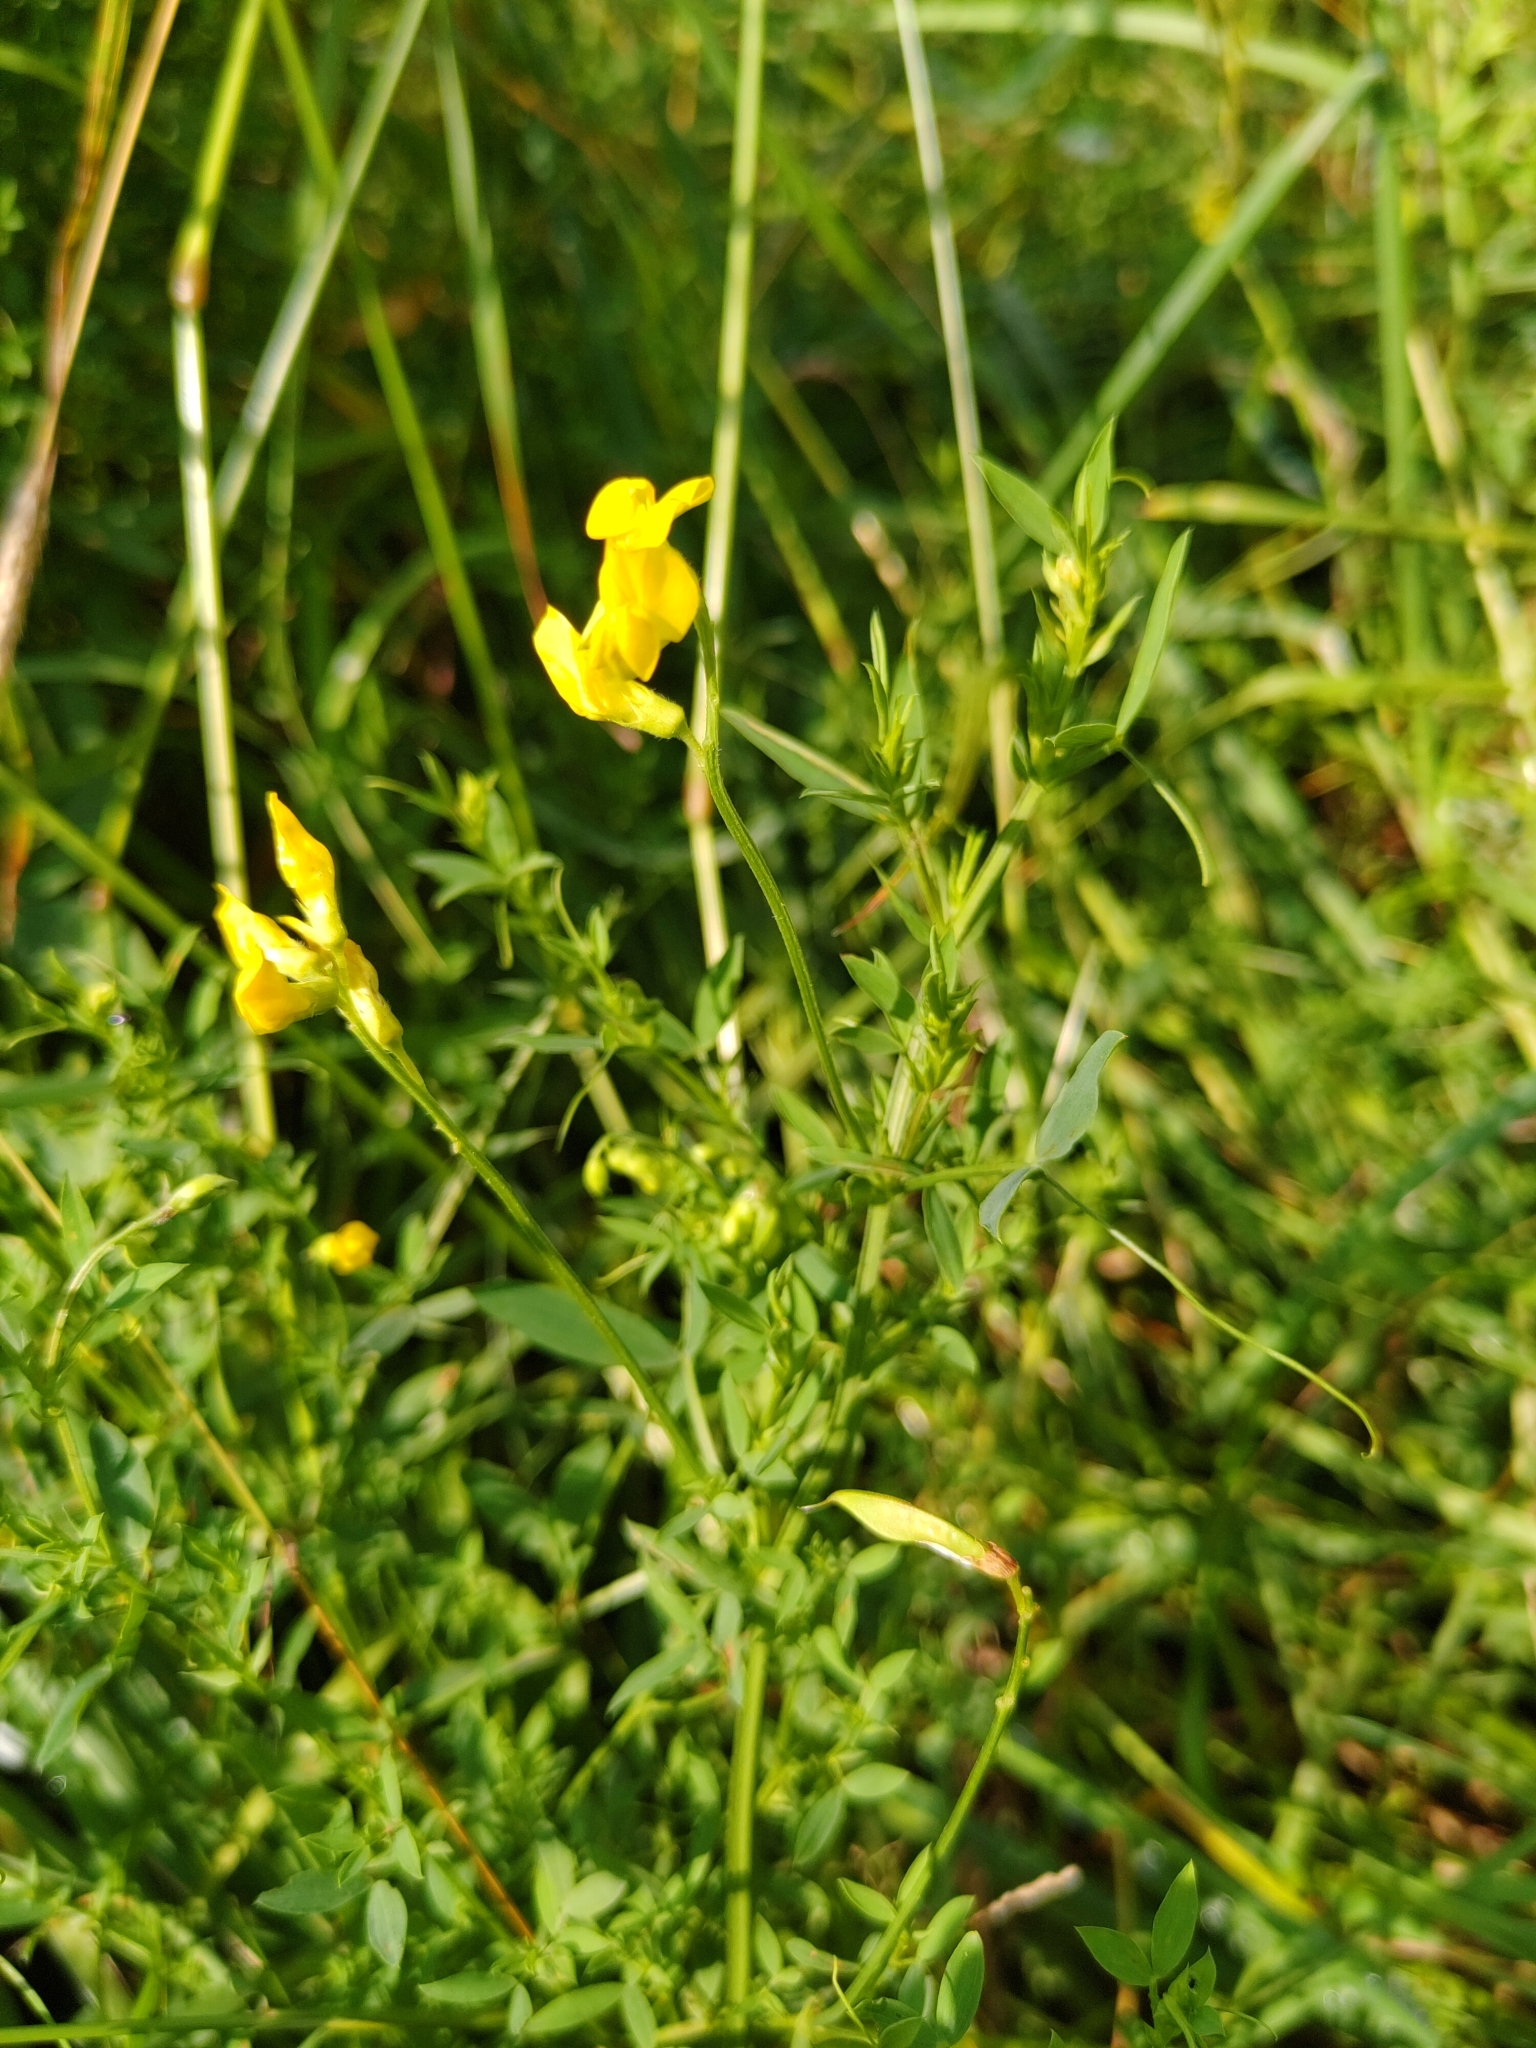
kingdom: Plantae
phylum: Tracheophyta
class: Magnoliopsida
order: Fabales
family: Fabaceae
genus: Lathyrus
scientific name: Lathyrus pratensis
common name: Meadow vetchling
